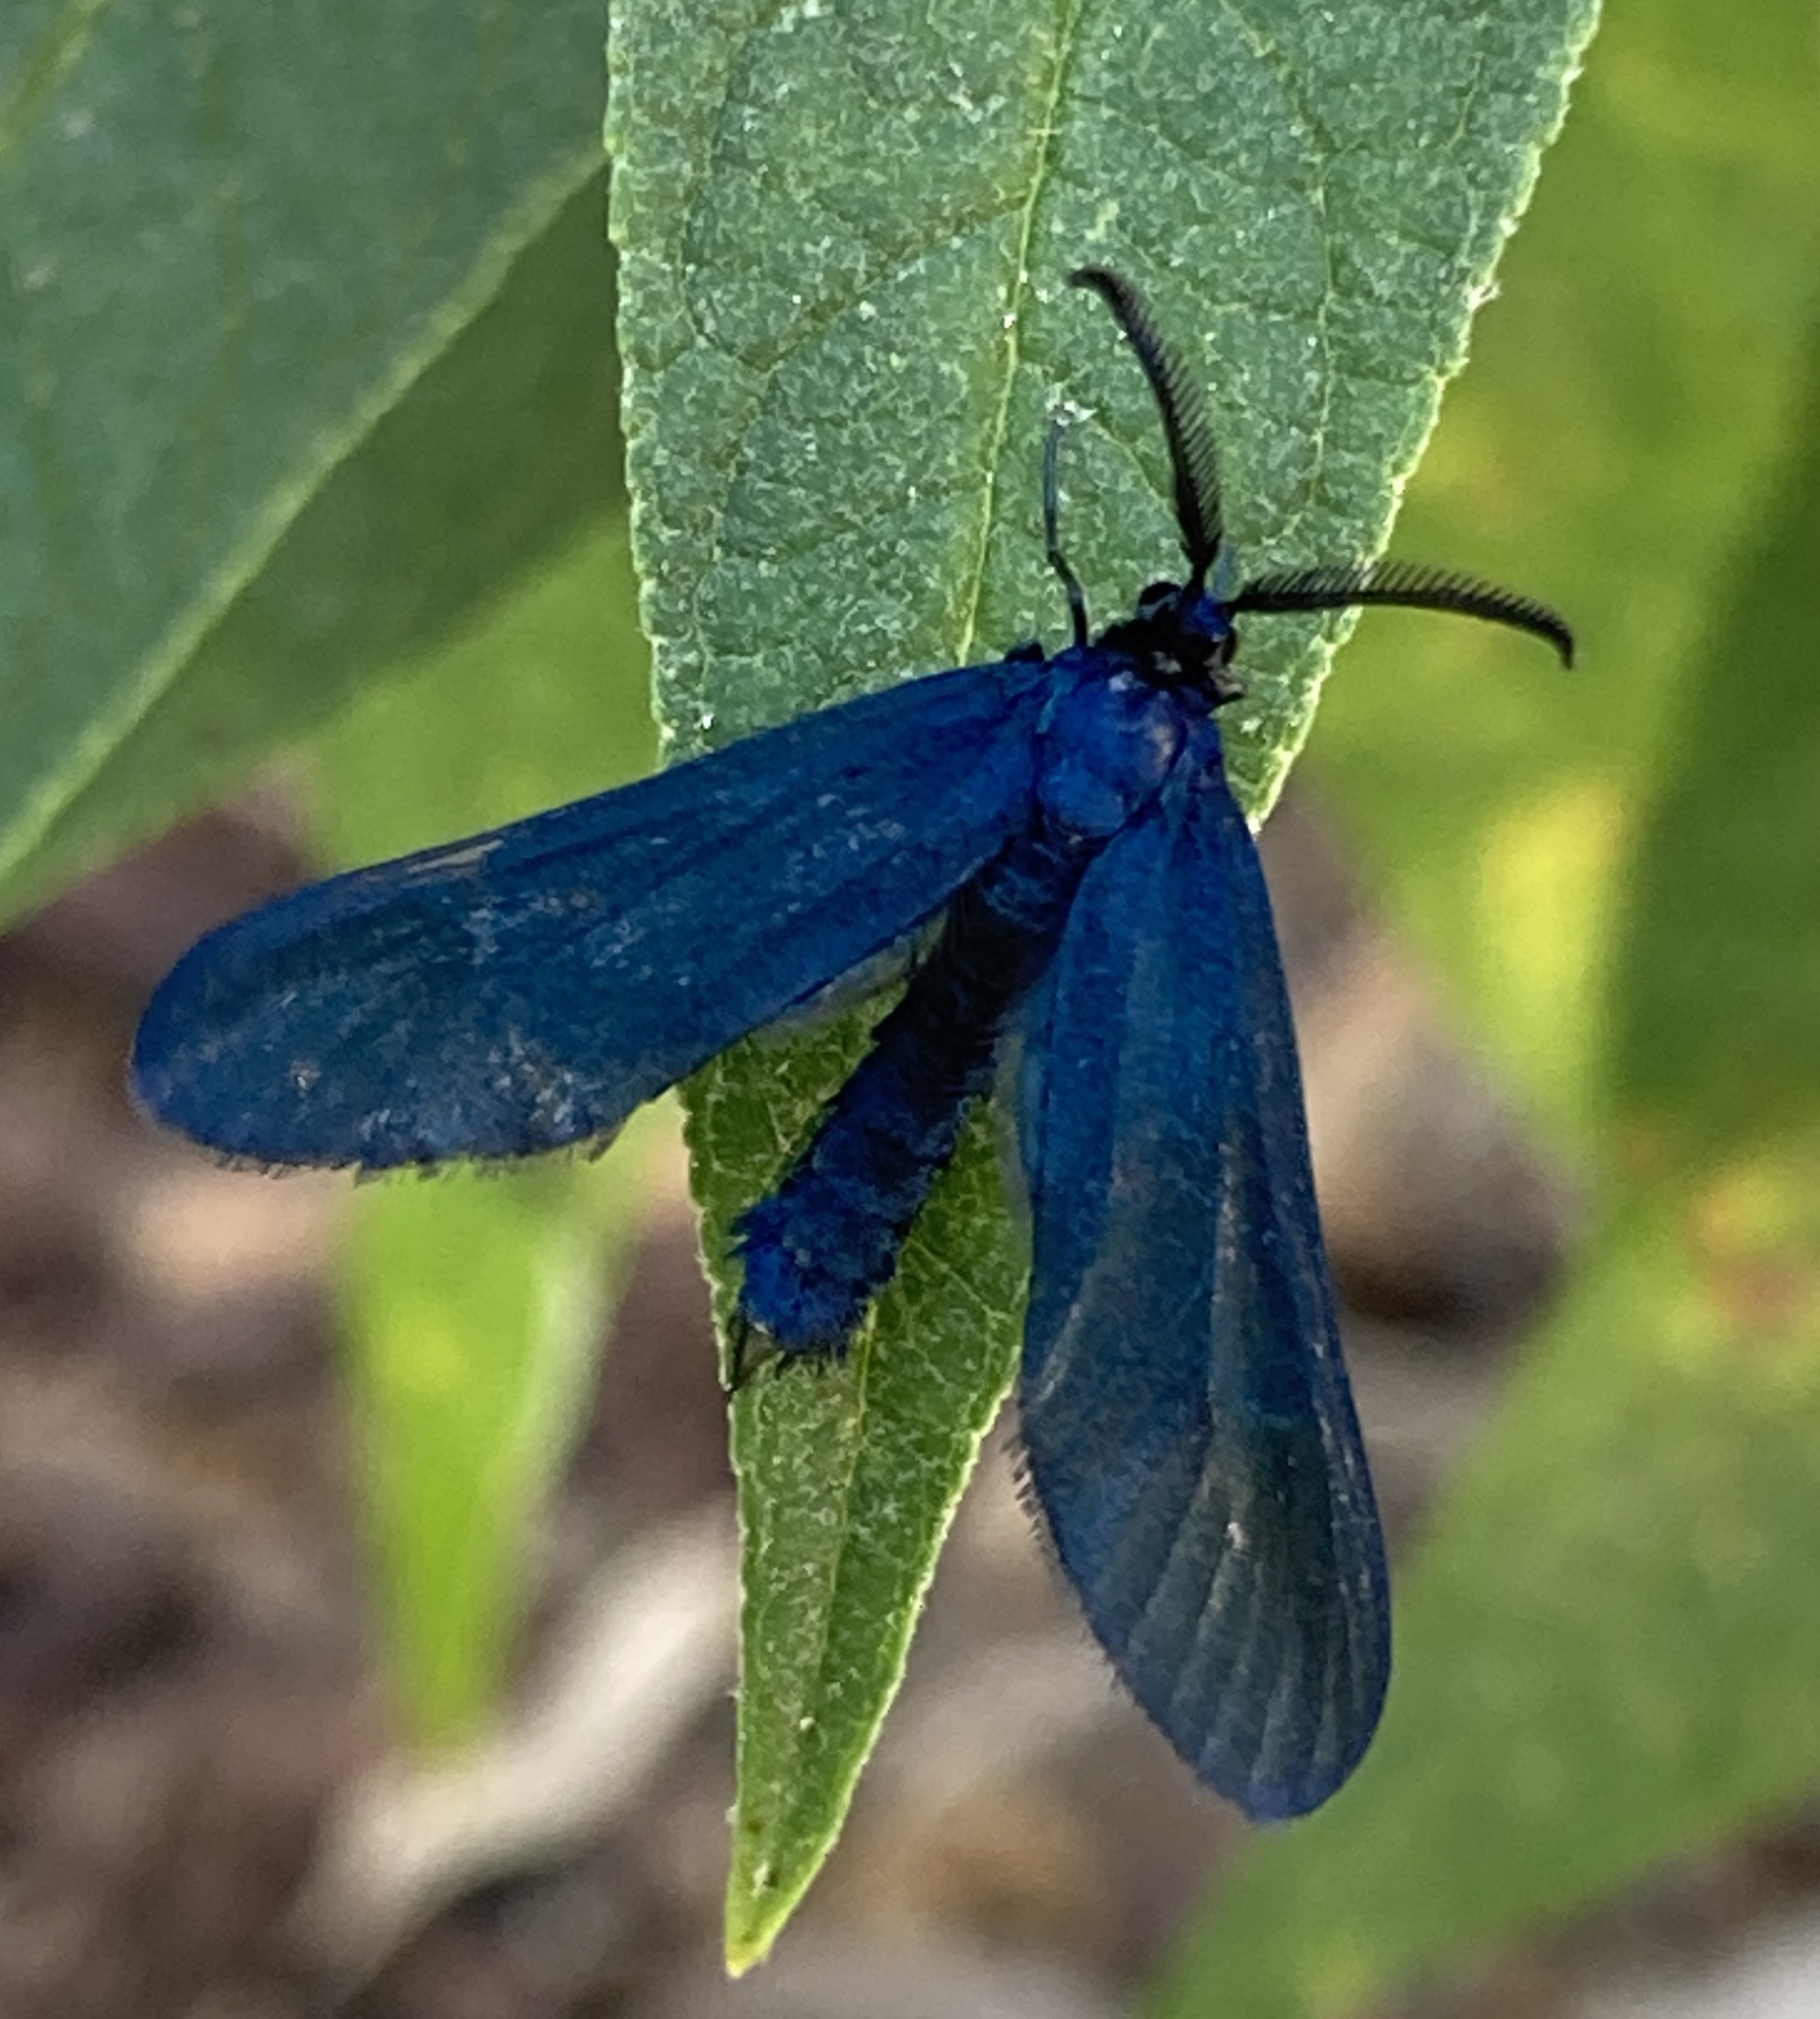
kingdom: Animalia
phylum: Arthropoda
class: Insecta
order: Lepidoptera
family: Zygaenidae
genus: Harrisina
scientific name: Harrisina metallica
